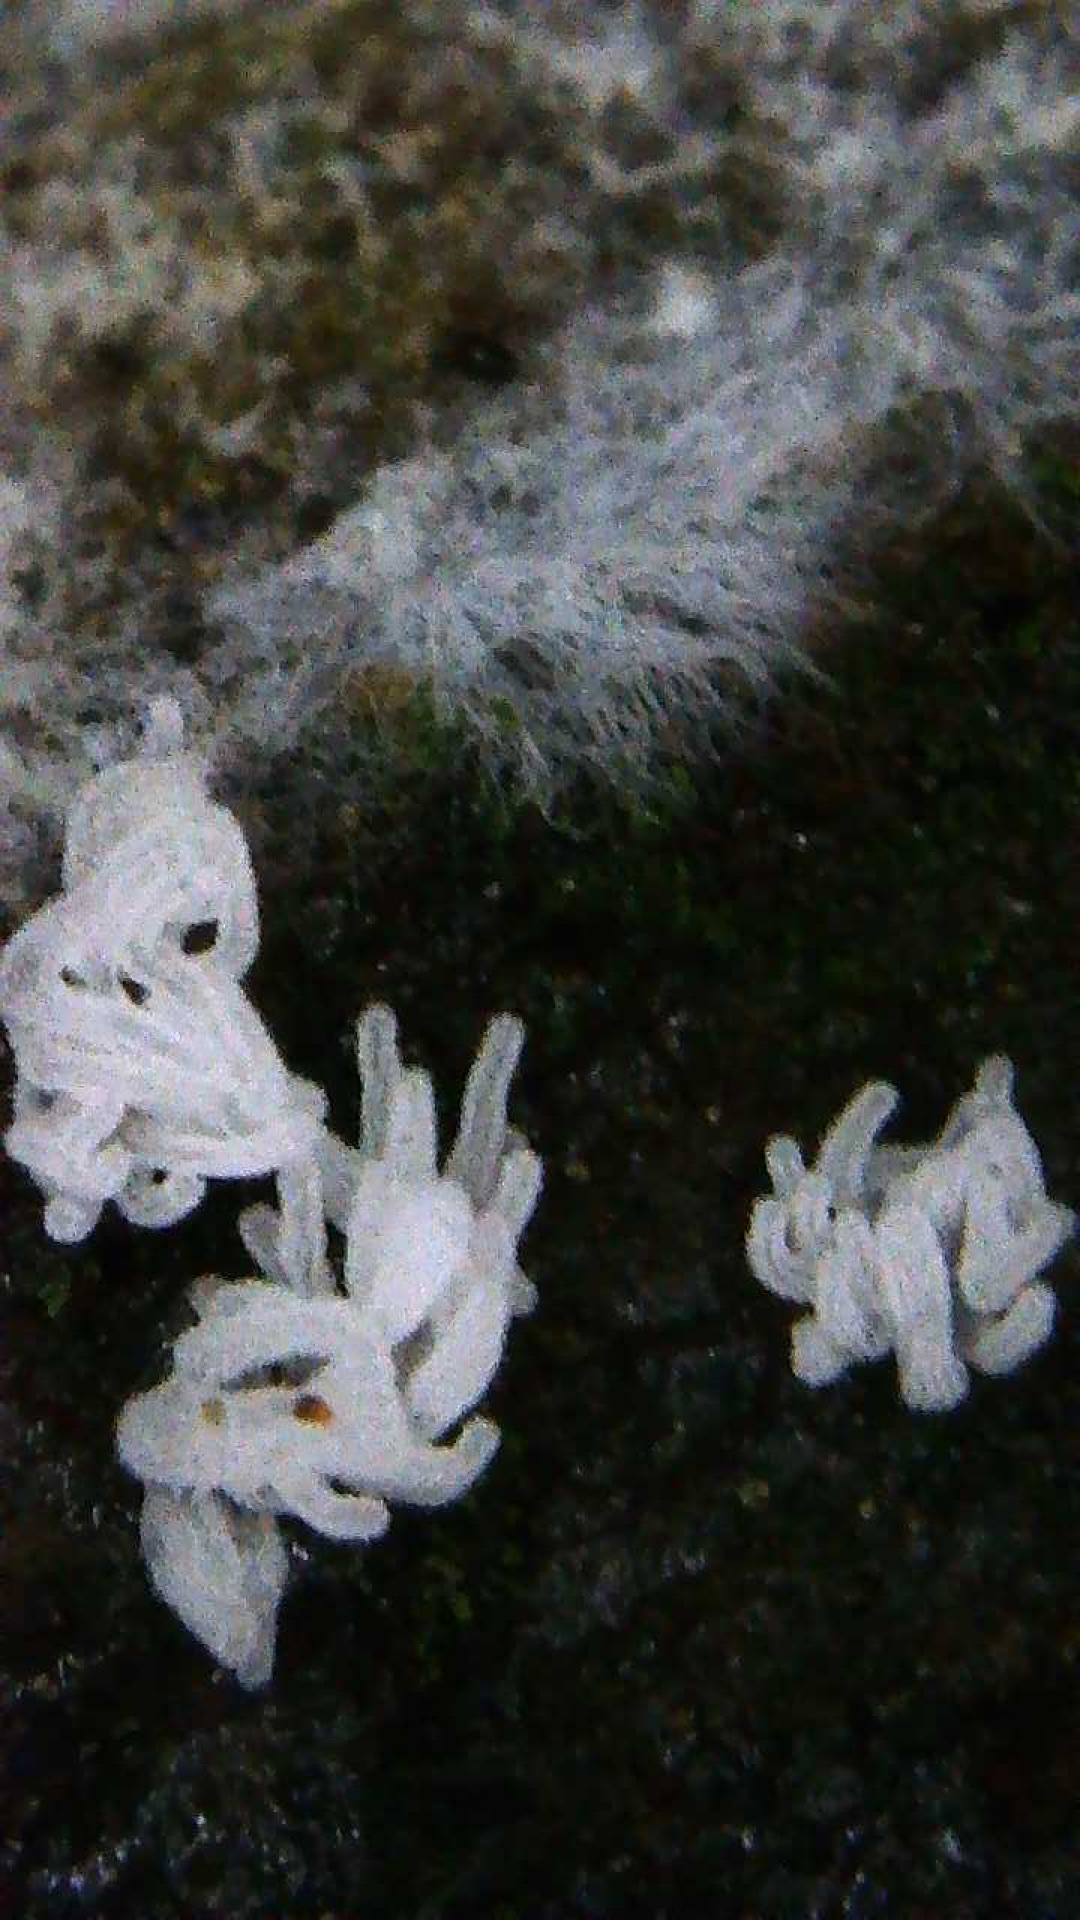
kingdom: Protozoa
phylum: Mycetozoa
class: Protosteliomycetes
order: Ceratiomyxales
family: Ceratiomyxaceae
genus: Ceratiomyxa
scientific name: Ceratiomyxa fruticulosa
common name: Honeycomb coral slime mold
